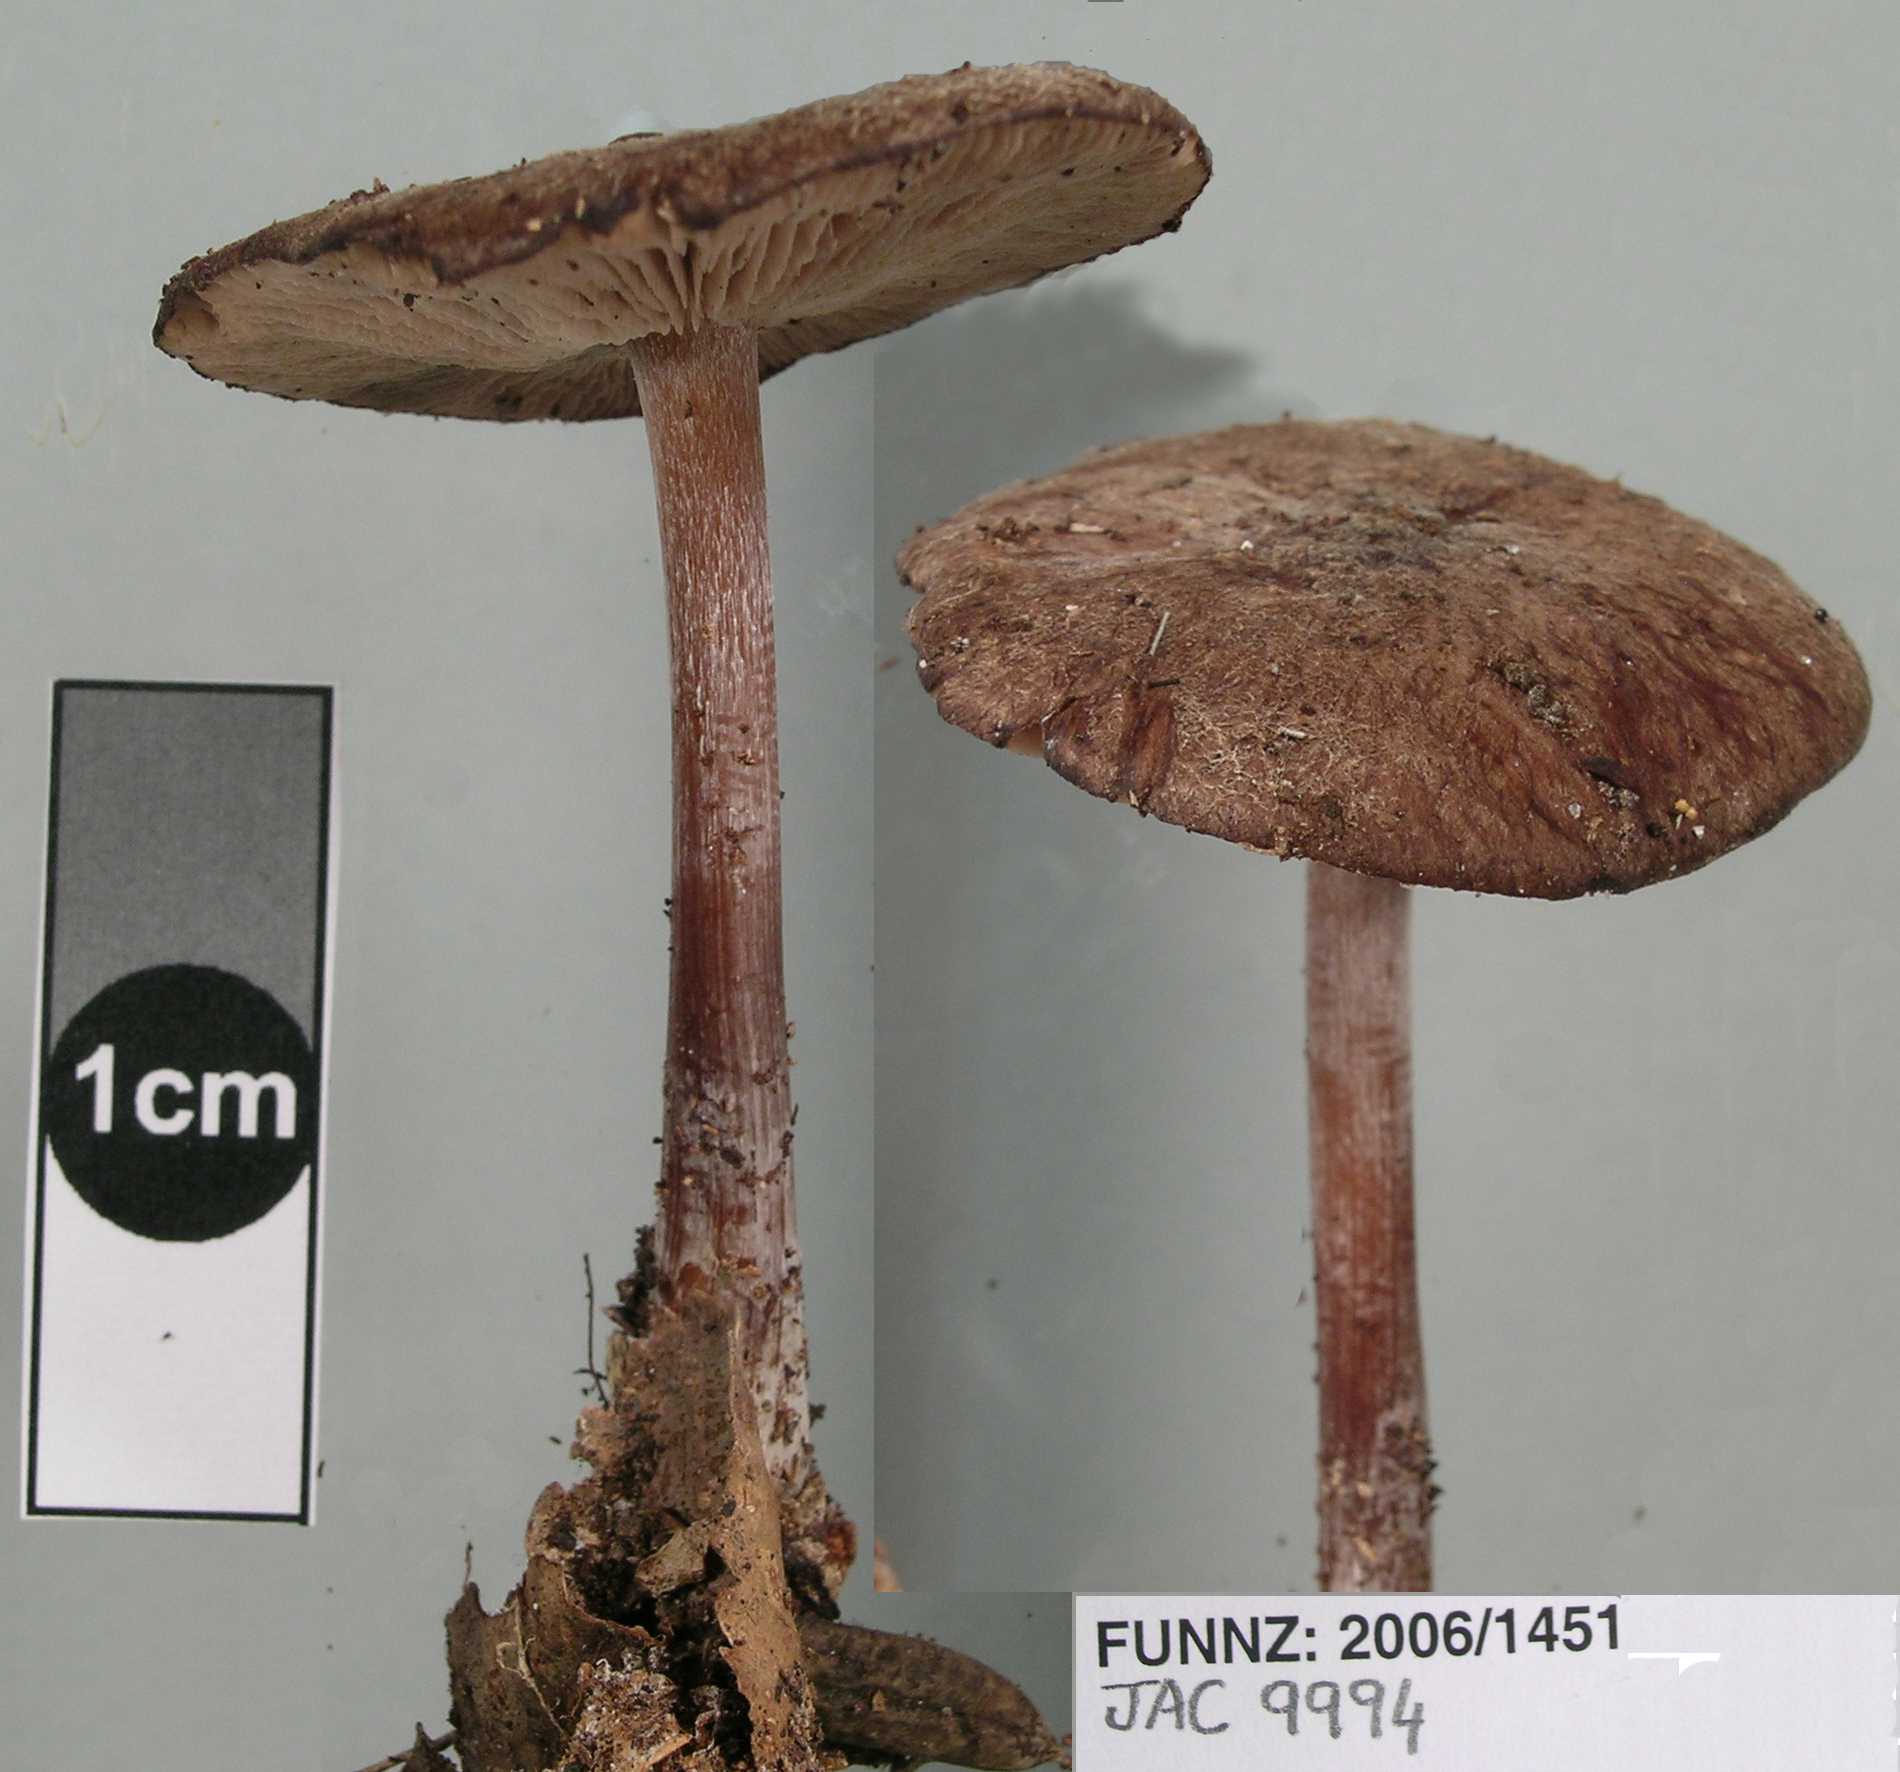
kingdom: Fungi
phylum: Basidiomycota
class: Agaricomycetes
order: Agaricales
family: Omphalotaceae
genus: Rhodocollybia
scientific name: Rhodocollybia purpurata
